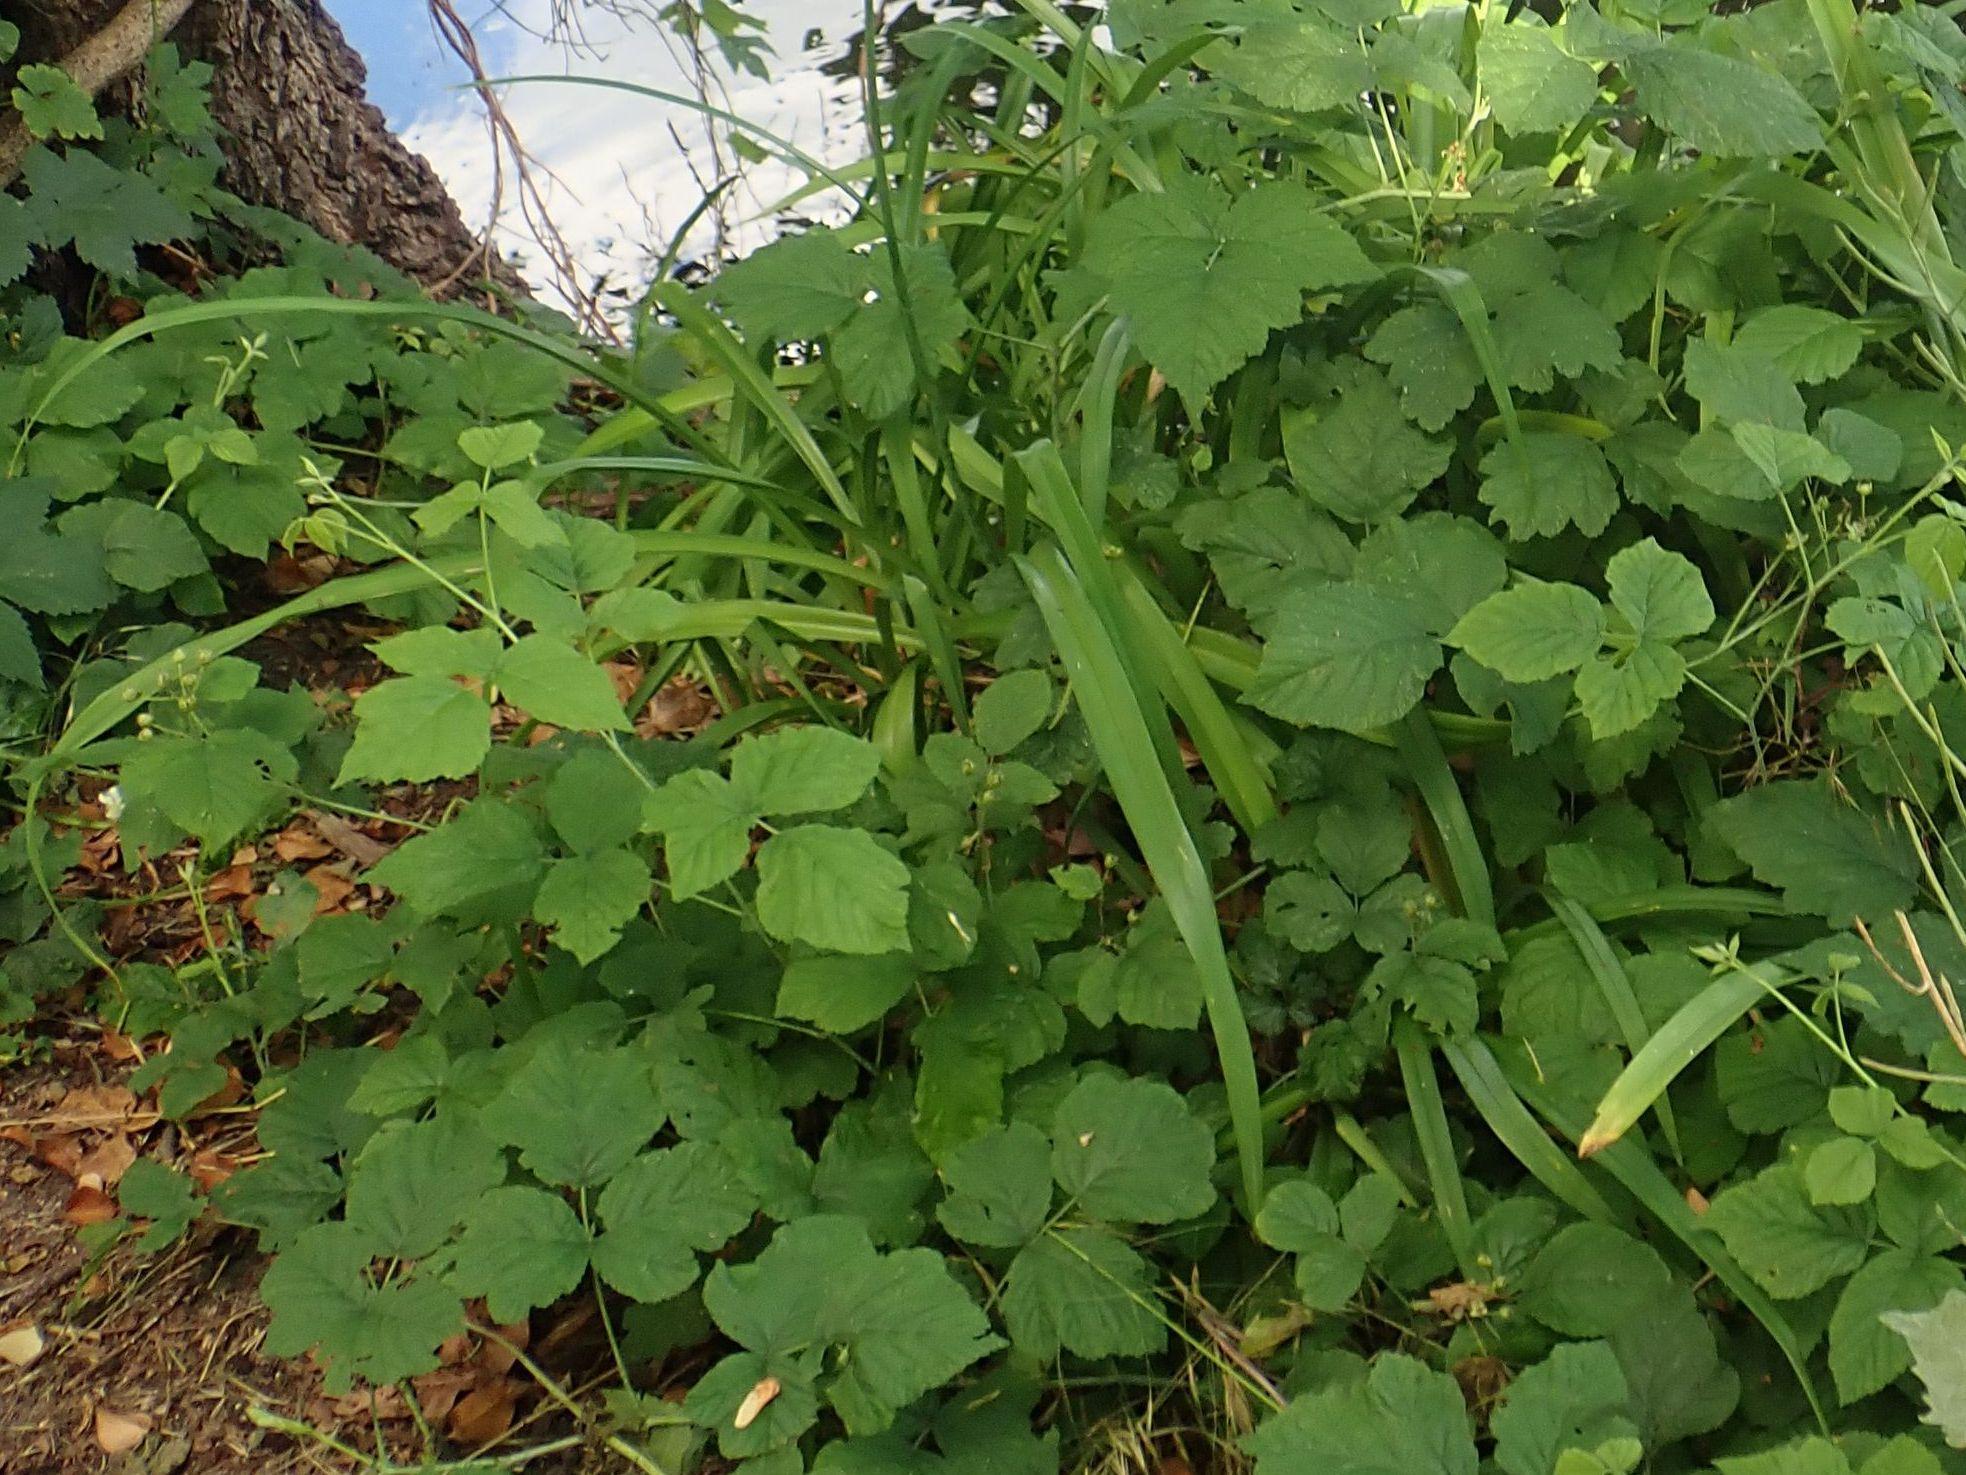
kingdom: Plantae
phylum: Tracheophyta
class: Magnoliopsida
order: Rosales
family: Rosaceae
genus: Rubus
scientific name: Rubus caesius
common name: Dewberry
